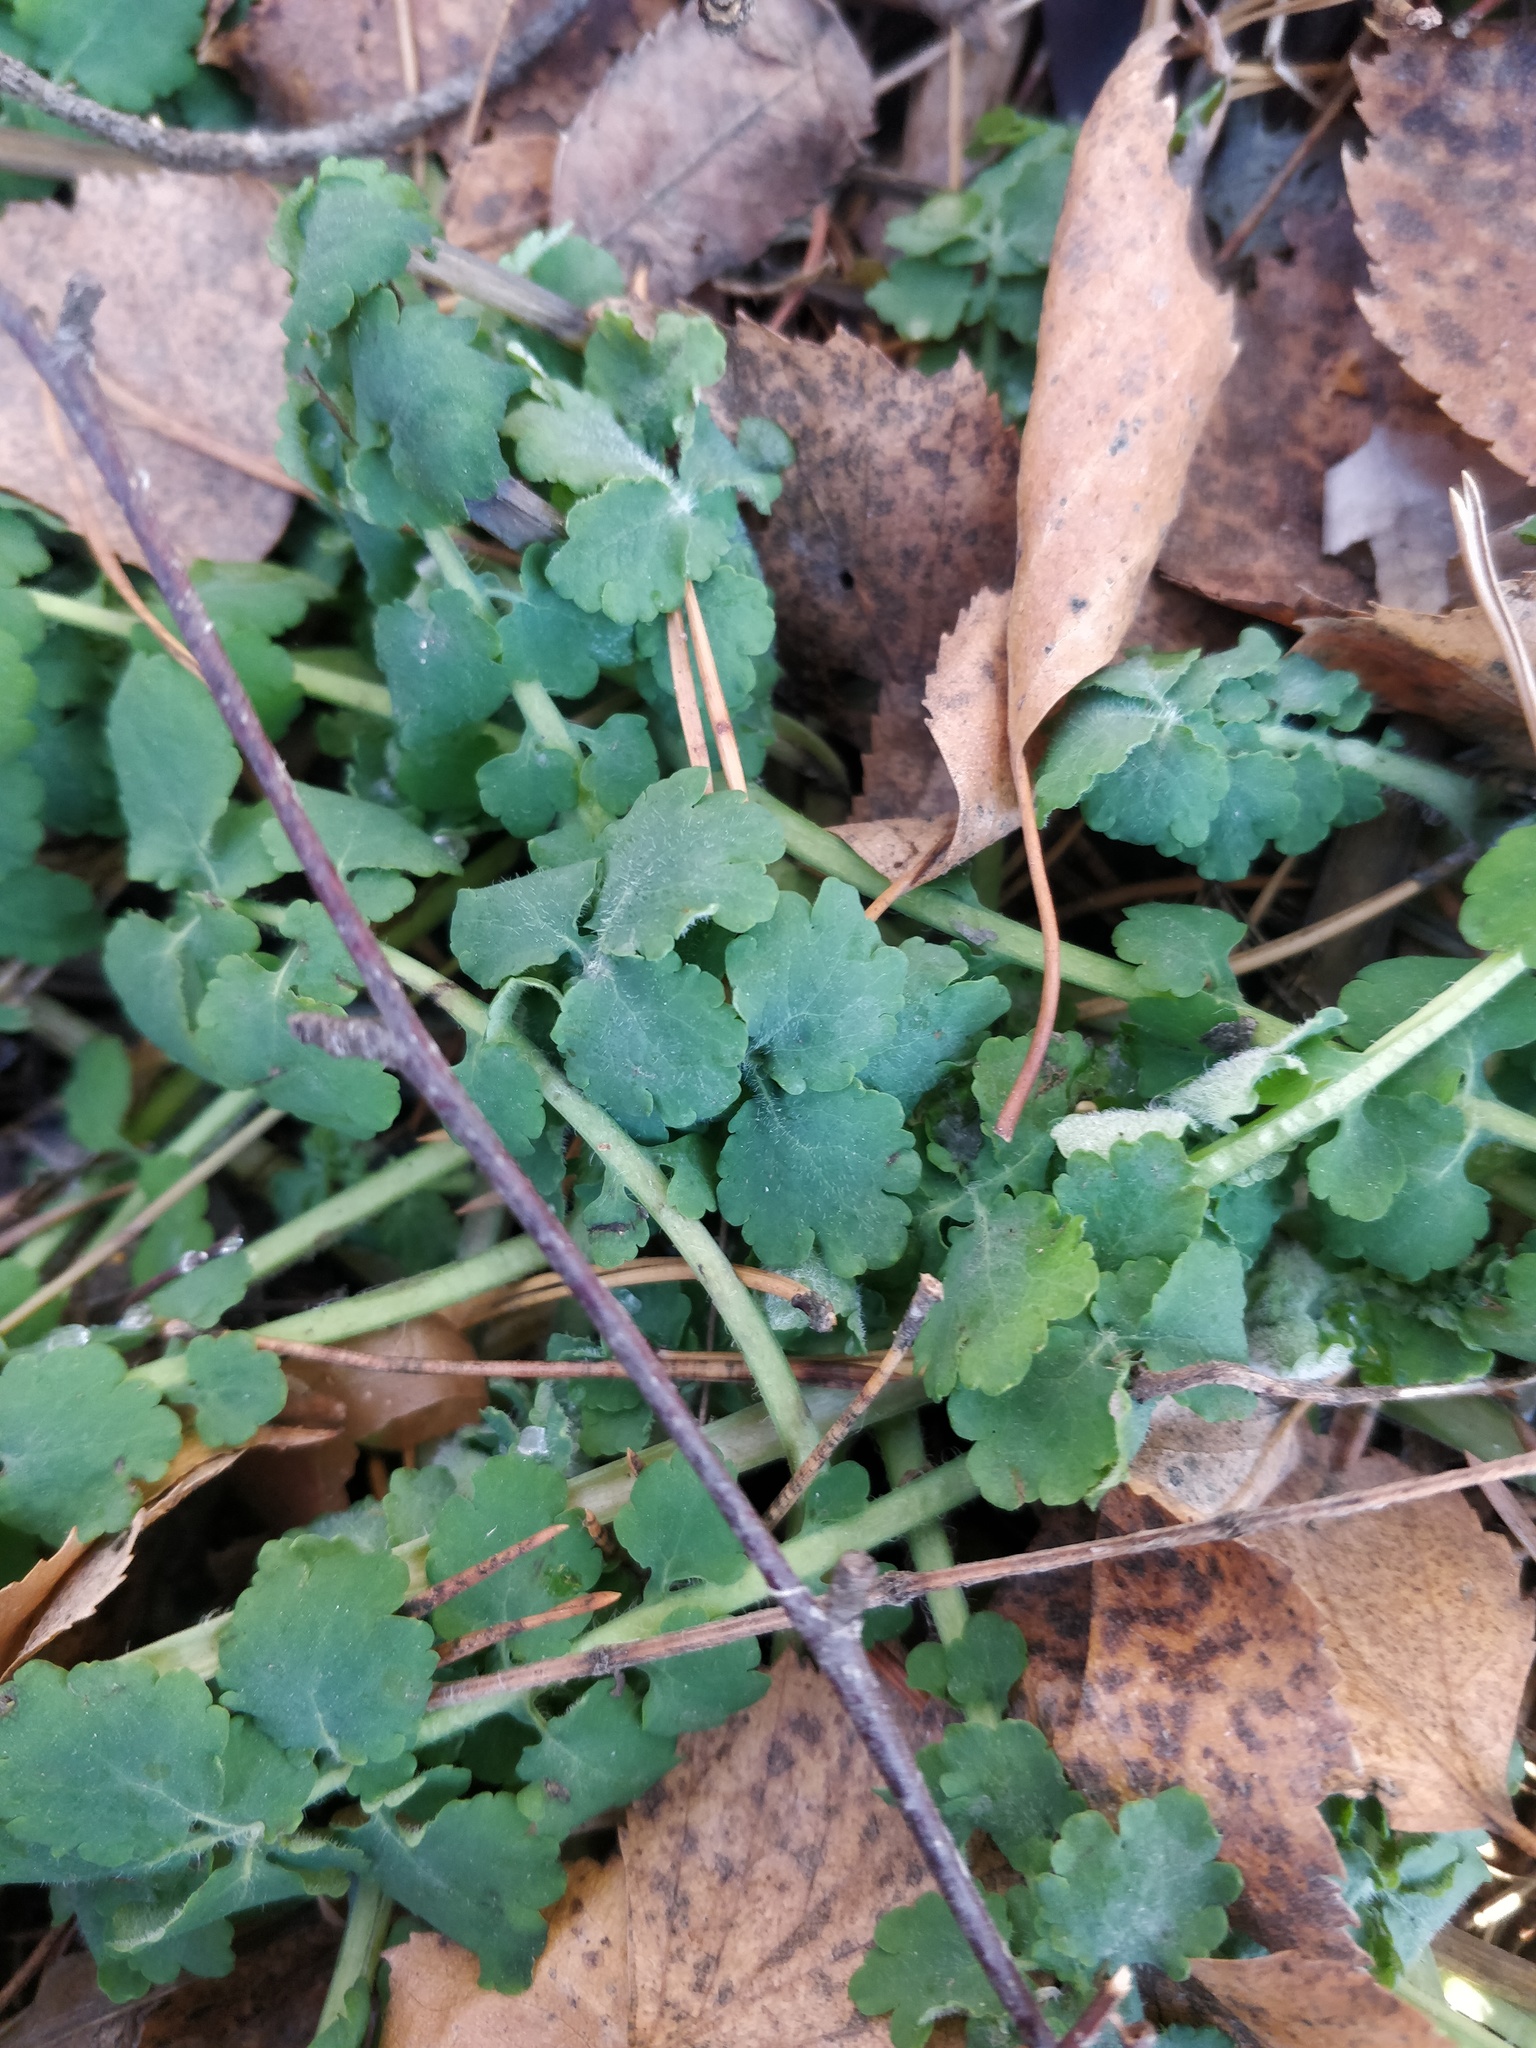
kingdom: Plantae
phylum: Tracheophyta
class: Magnoliopsida
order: Ranunculales
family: Papaveraceae
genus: Chelidonium
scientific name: Chelidonium majus
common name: Greater celandine
